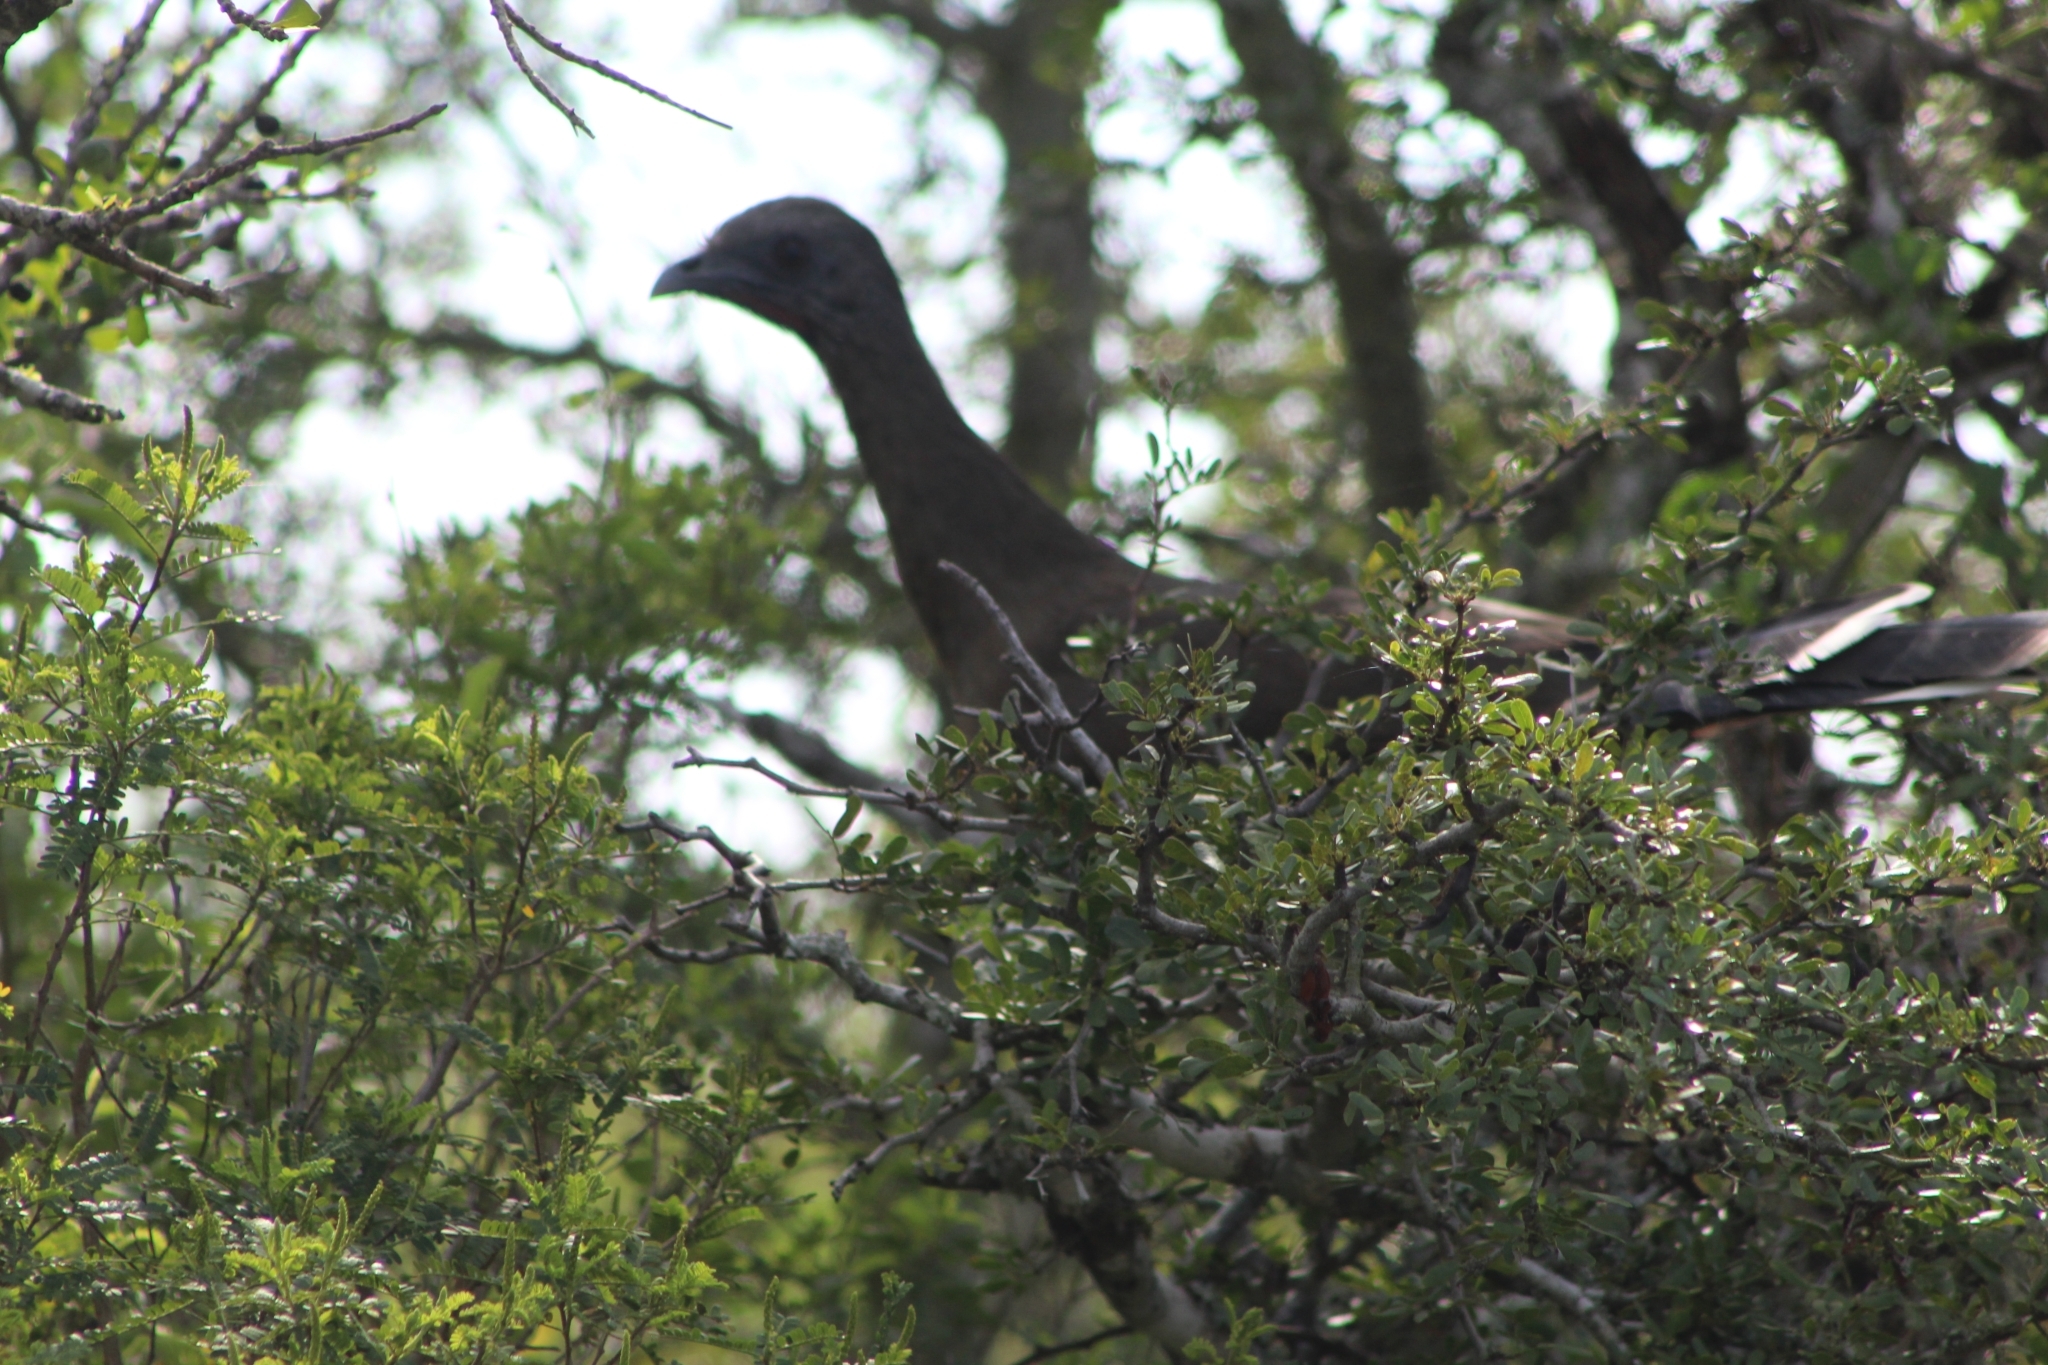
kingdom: Animalia
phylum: Chordata
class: Aves
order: Galliformes
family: Cracidae
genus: Ortalis
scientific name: Ortalis vetula
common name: Plain chachalaca
